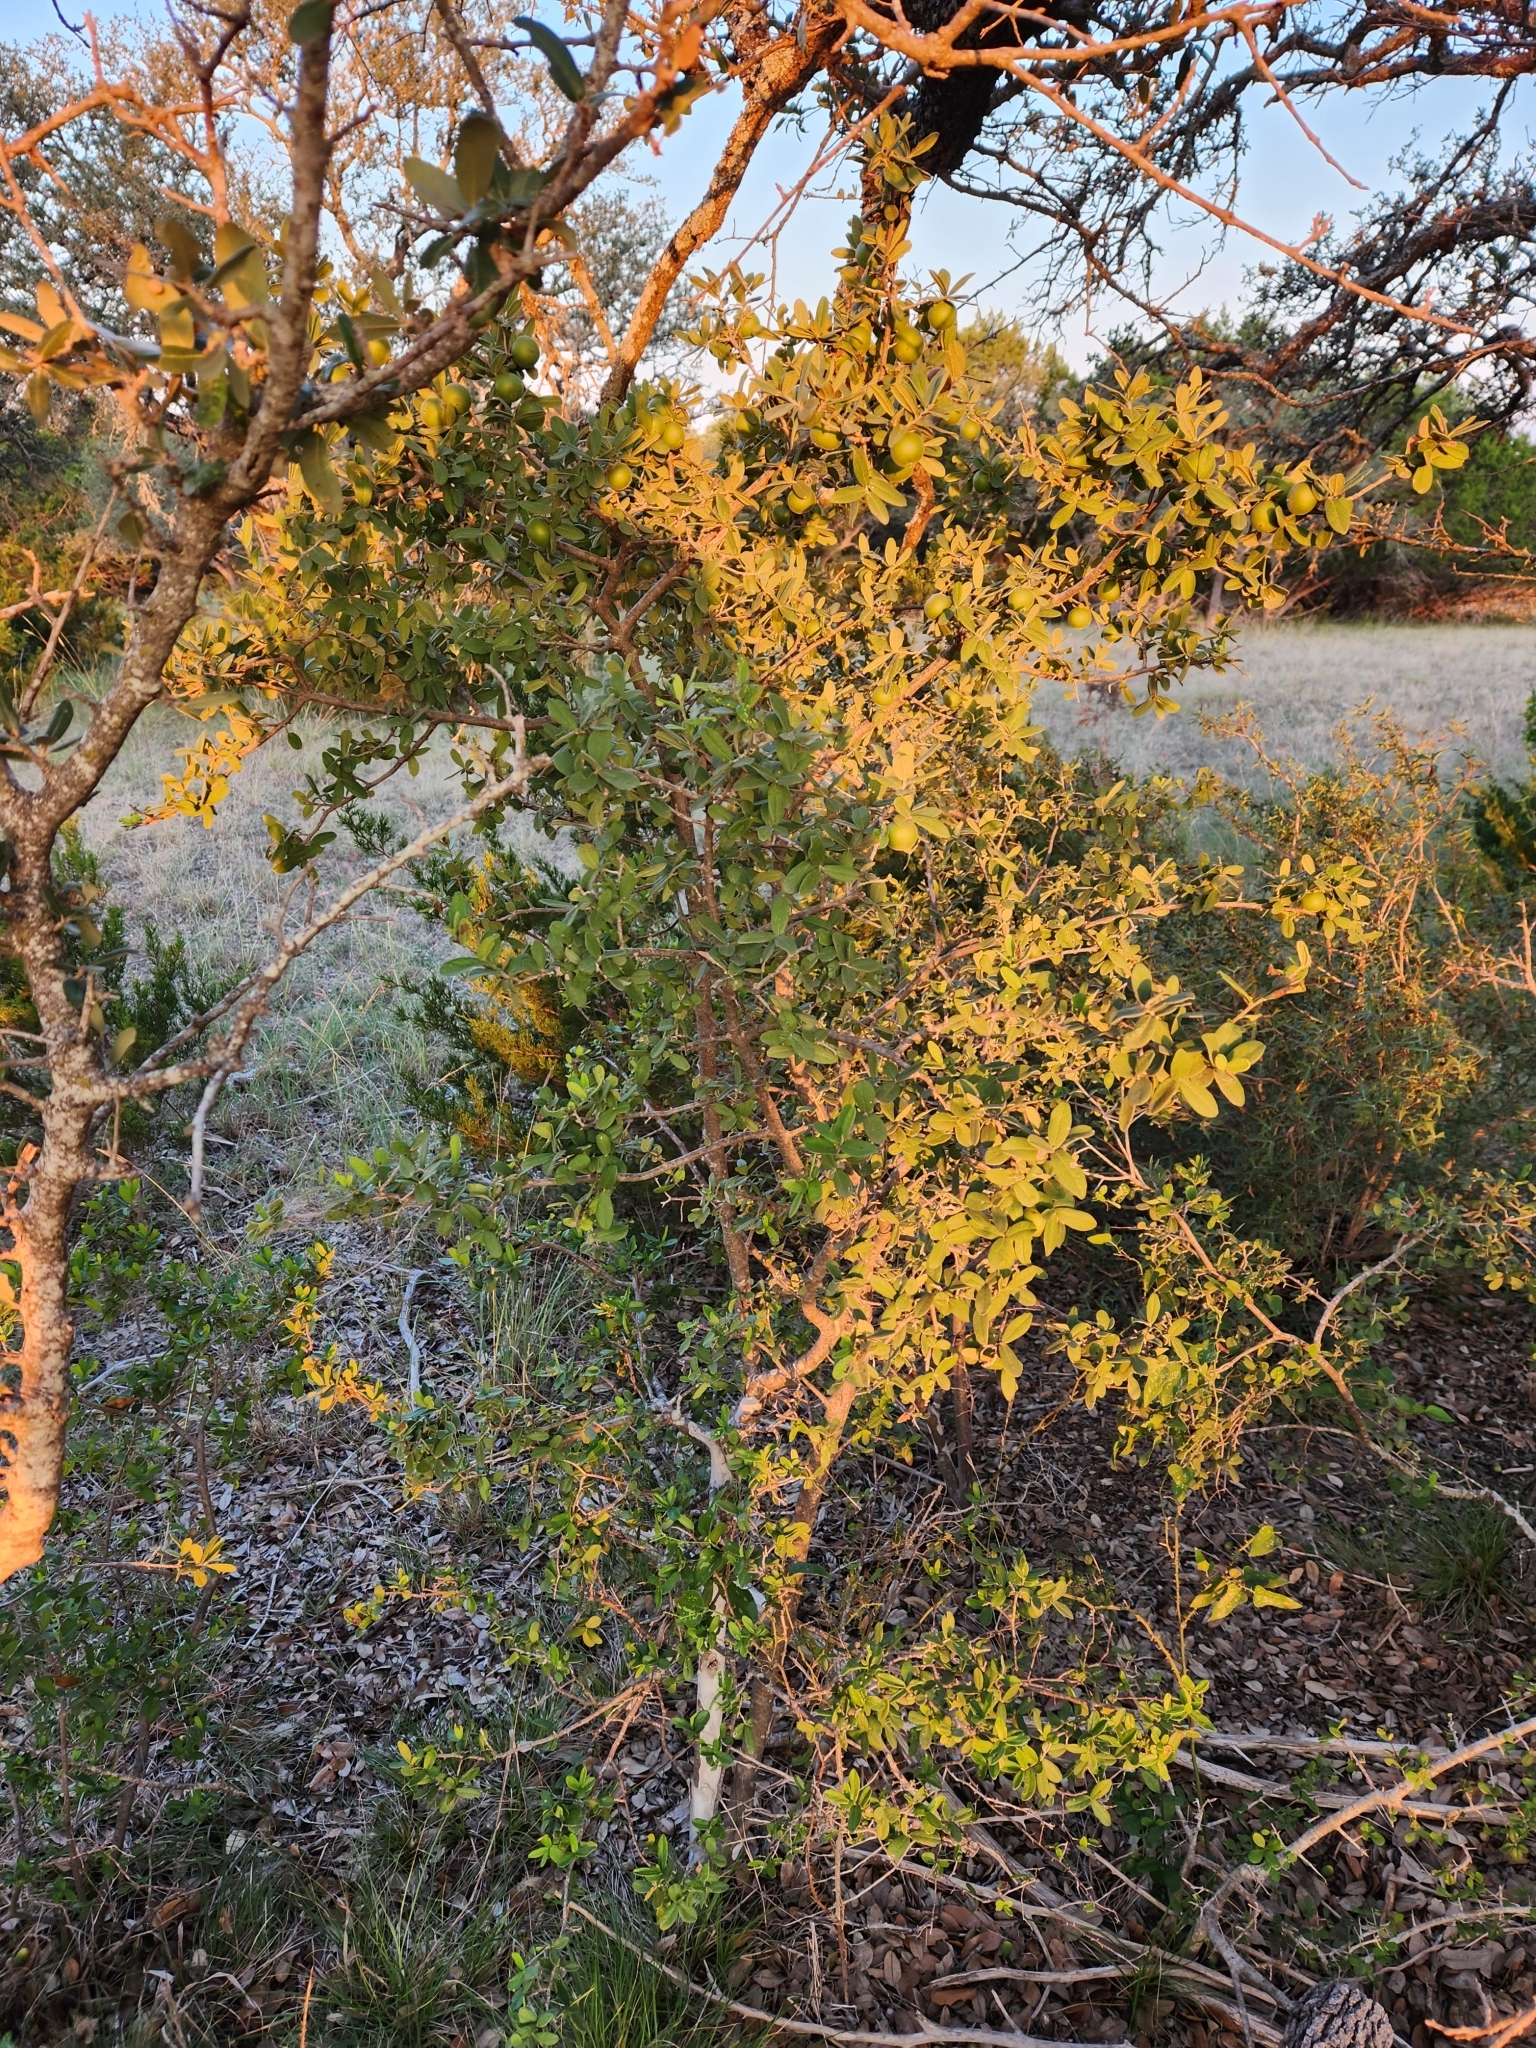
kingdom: Plantae
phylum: Tracheophyta
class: Magnoliopsida
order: Ericales
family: Ebenaceae
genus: Diospyros
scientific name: Diospyros texana
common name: Texas persimmon
